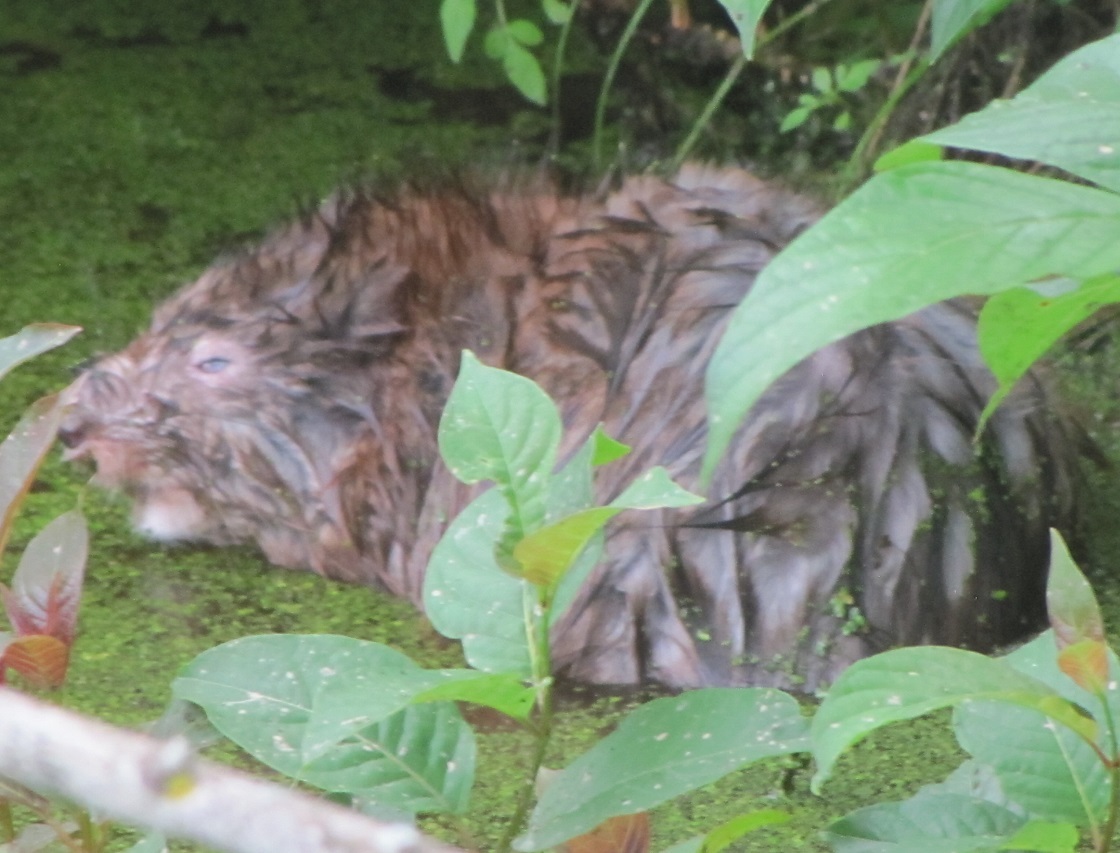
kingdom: Animalia
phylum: Chordata
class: Mammalia
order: Rodentia
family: Cricetidae
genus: Ondatra
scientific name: Ondatra zibethicus
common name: Muskrat
